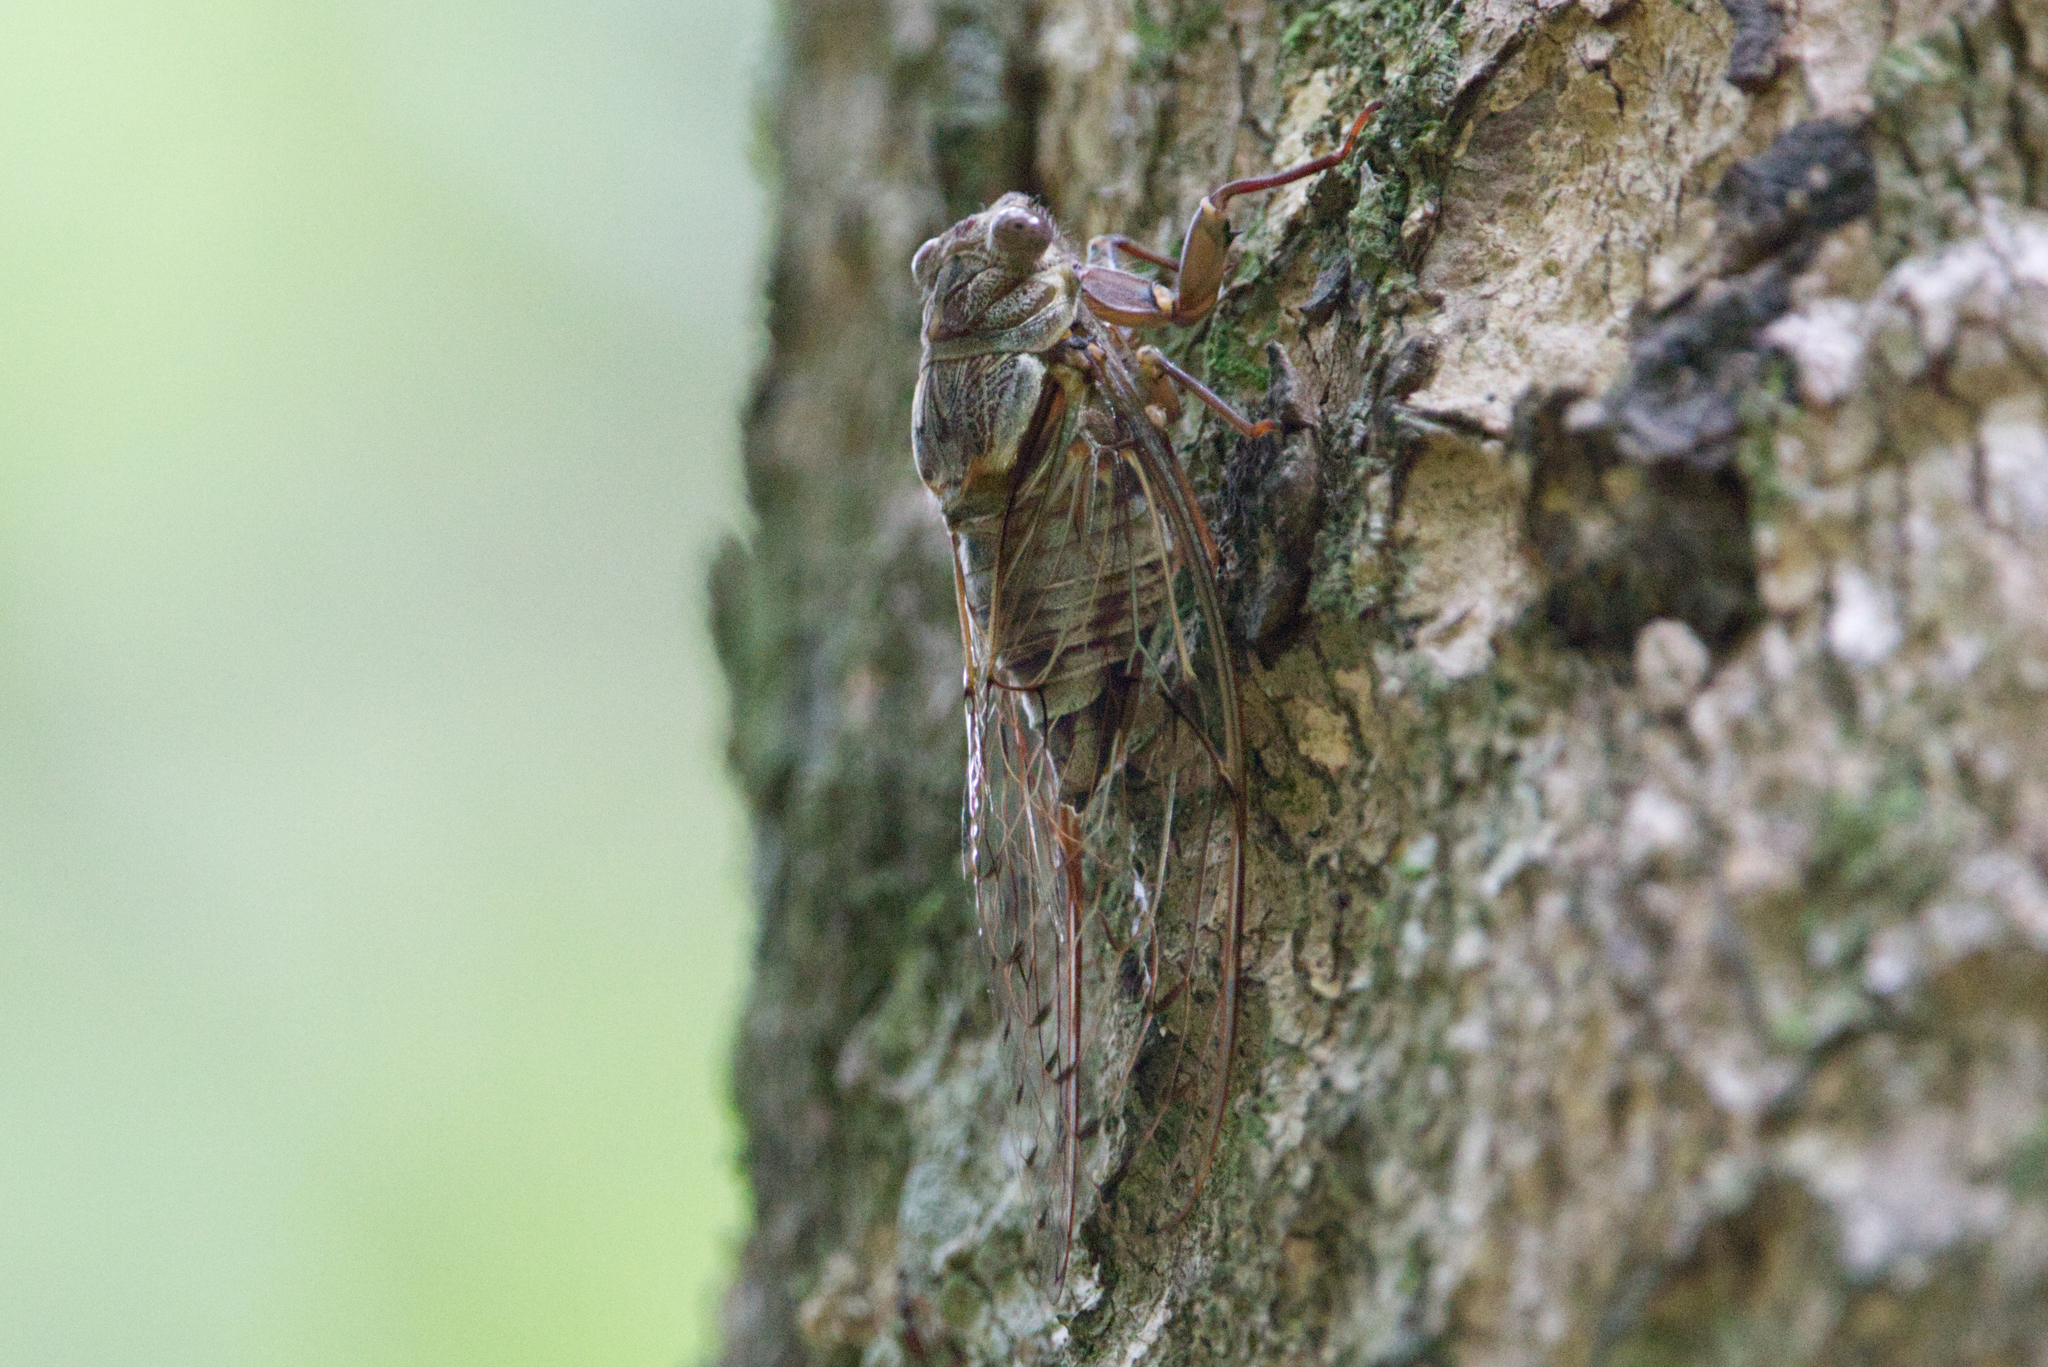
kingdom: Animalia
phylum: Arthropoda
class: Insecta
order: Hemiptera
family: Cicadidae
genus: Henicopsaltria
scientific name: Henicopsaltria eydouxii
